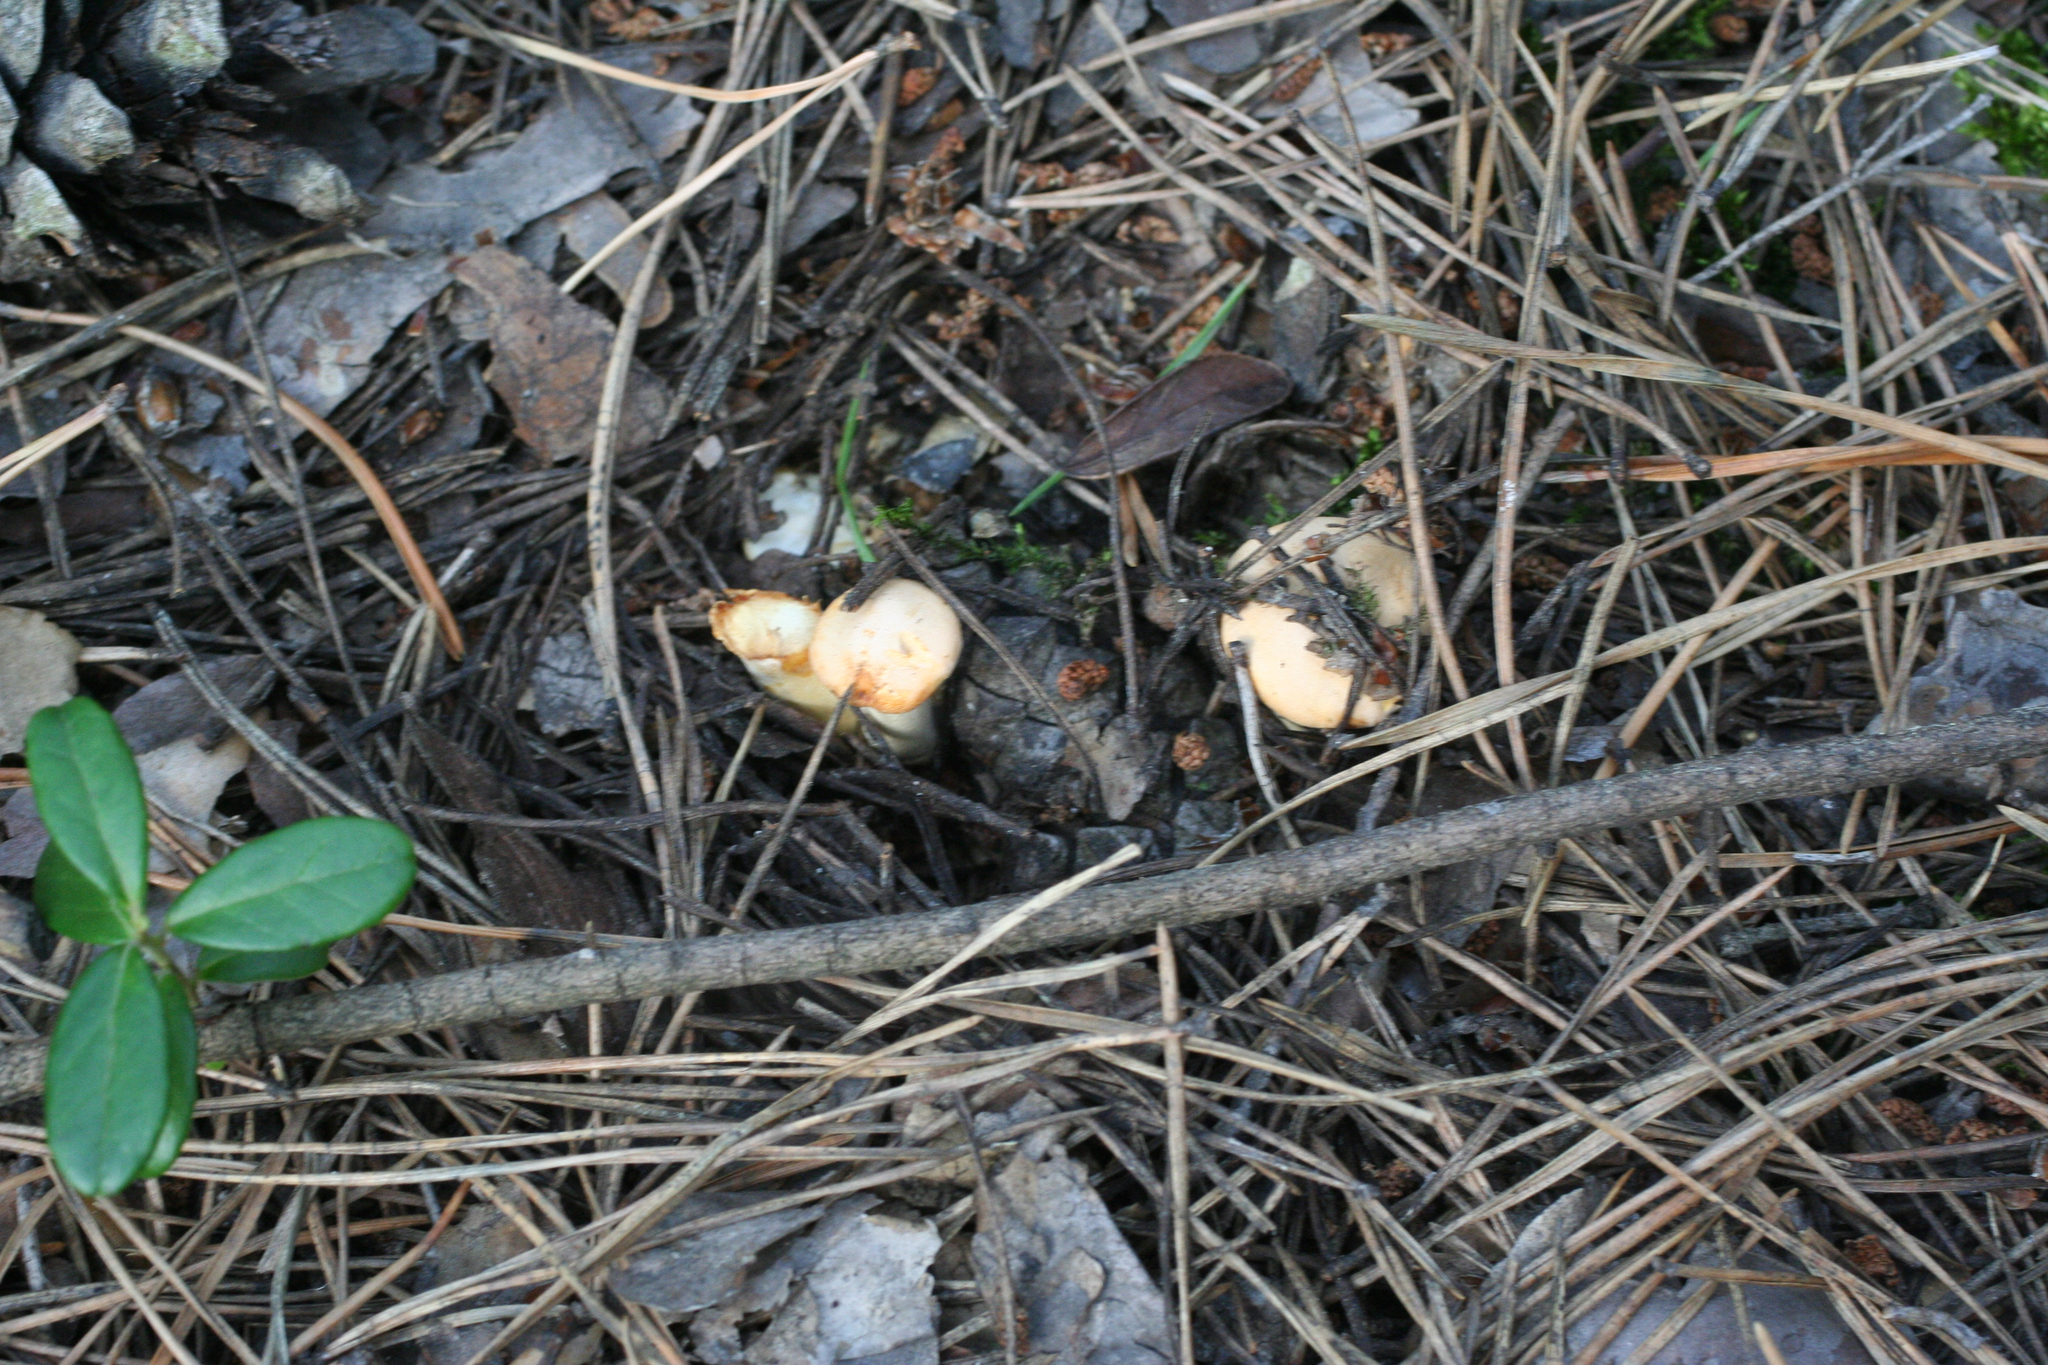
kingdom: Fungi
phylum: Basidiomycota
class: Agaricomycetes
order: Cantharellales
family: Hydnaceae
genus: Cantharellus
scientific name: Cantharellus cibarius
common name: Chanterelle
